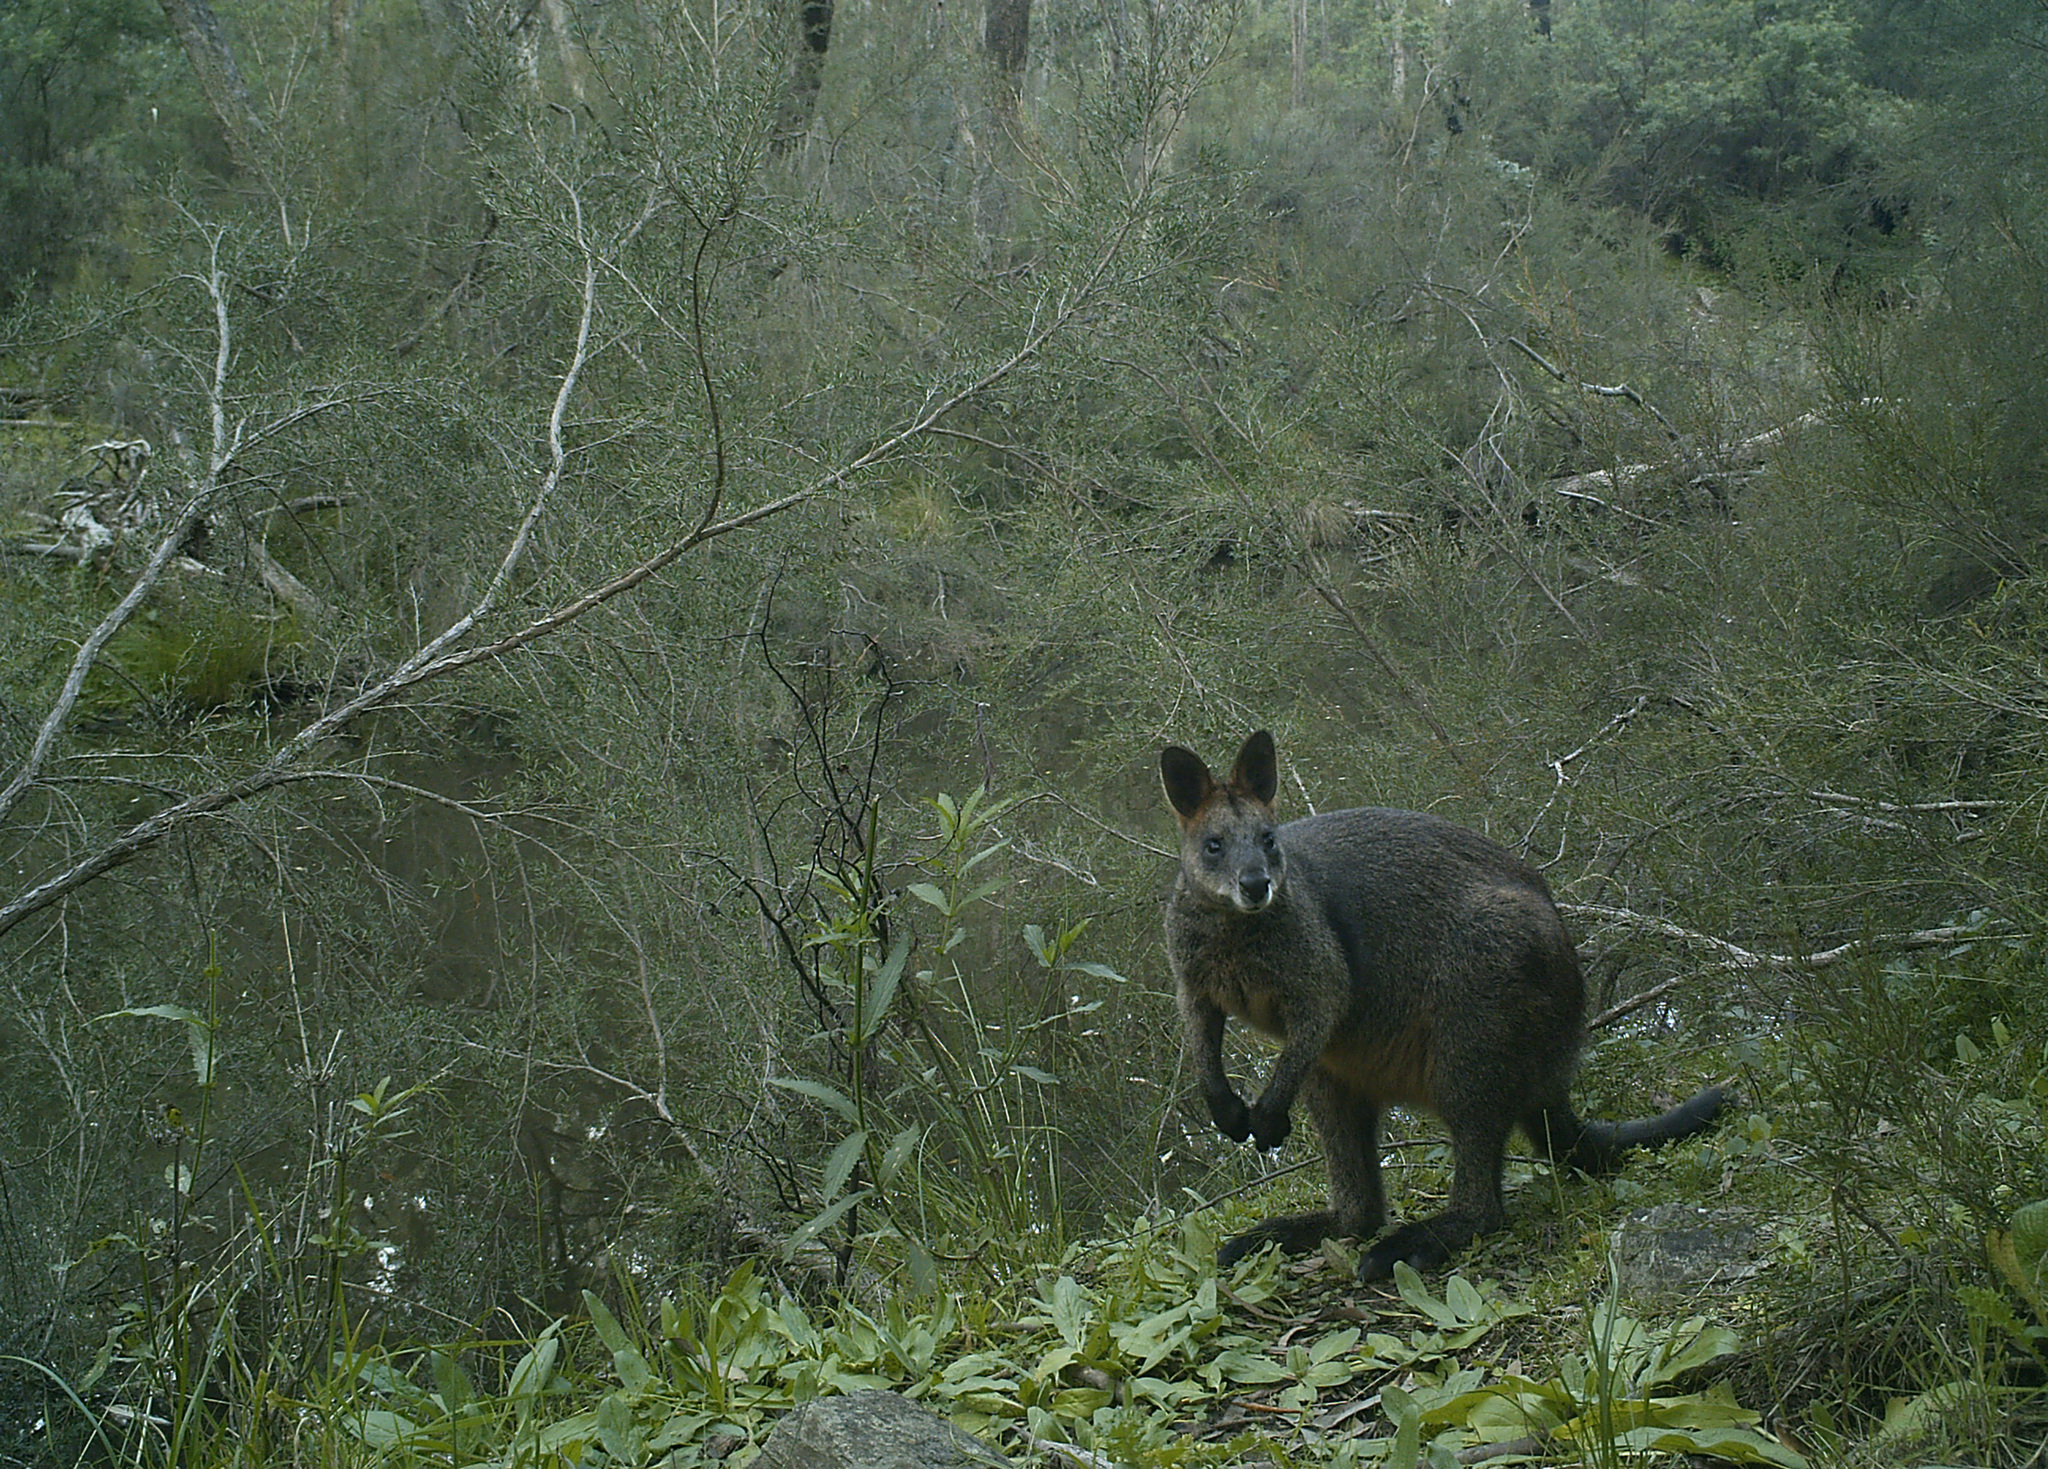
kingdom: Animalia
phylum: Chordata
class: Mammalia
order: Diprotodontia
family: Macropodidae
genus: Wallabia
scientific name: Wallabia bicolor
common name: Swamp wallaby
